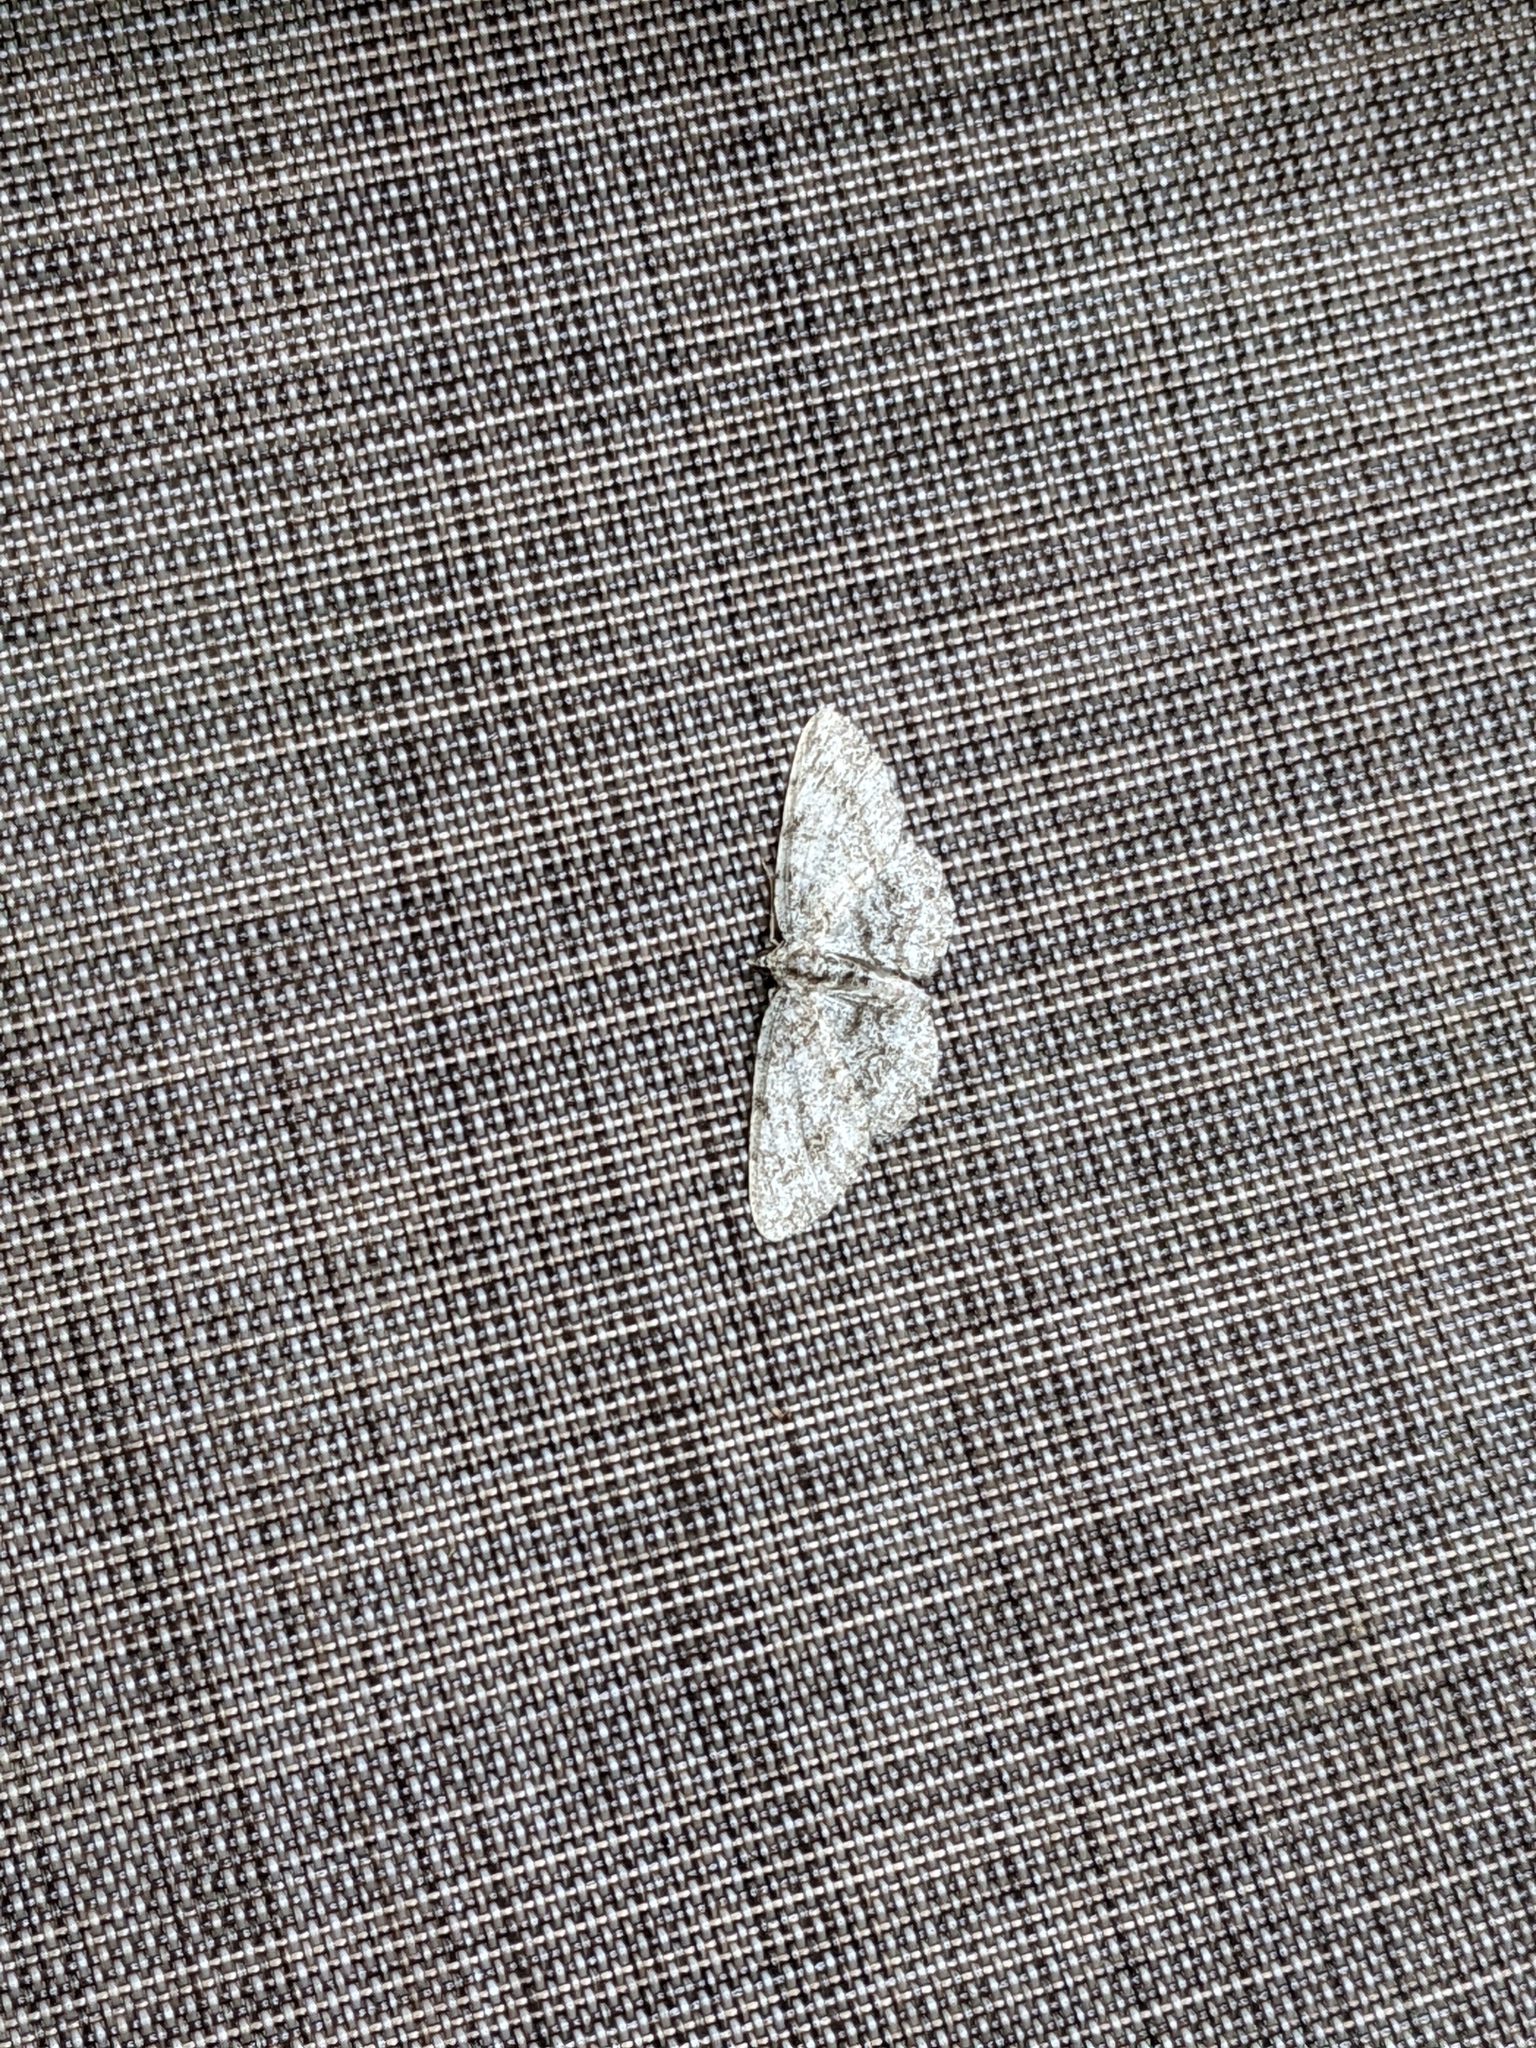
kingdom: Animalia
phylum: Arthropoda
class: Insecta
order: Lepidoptera
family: Geometridae
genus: Protoboarmia
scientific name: Protoboarmia porcelaria
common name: Porcelain gray
